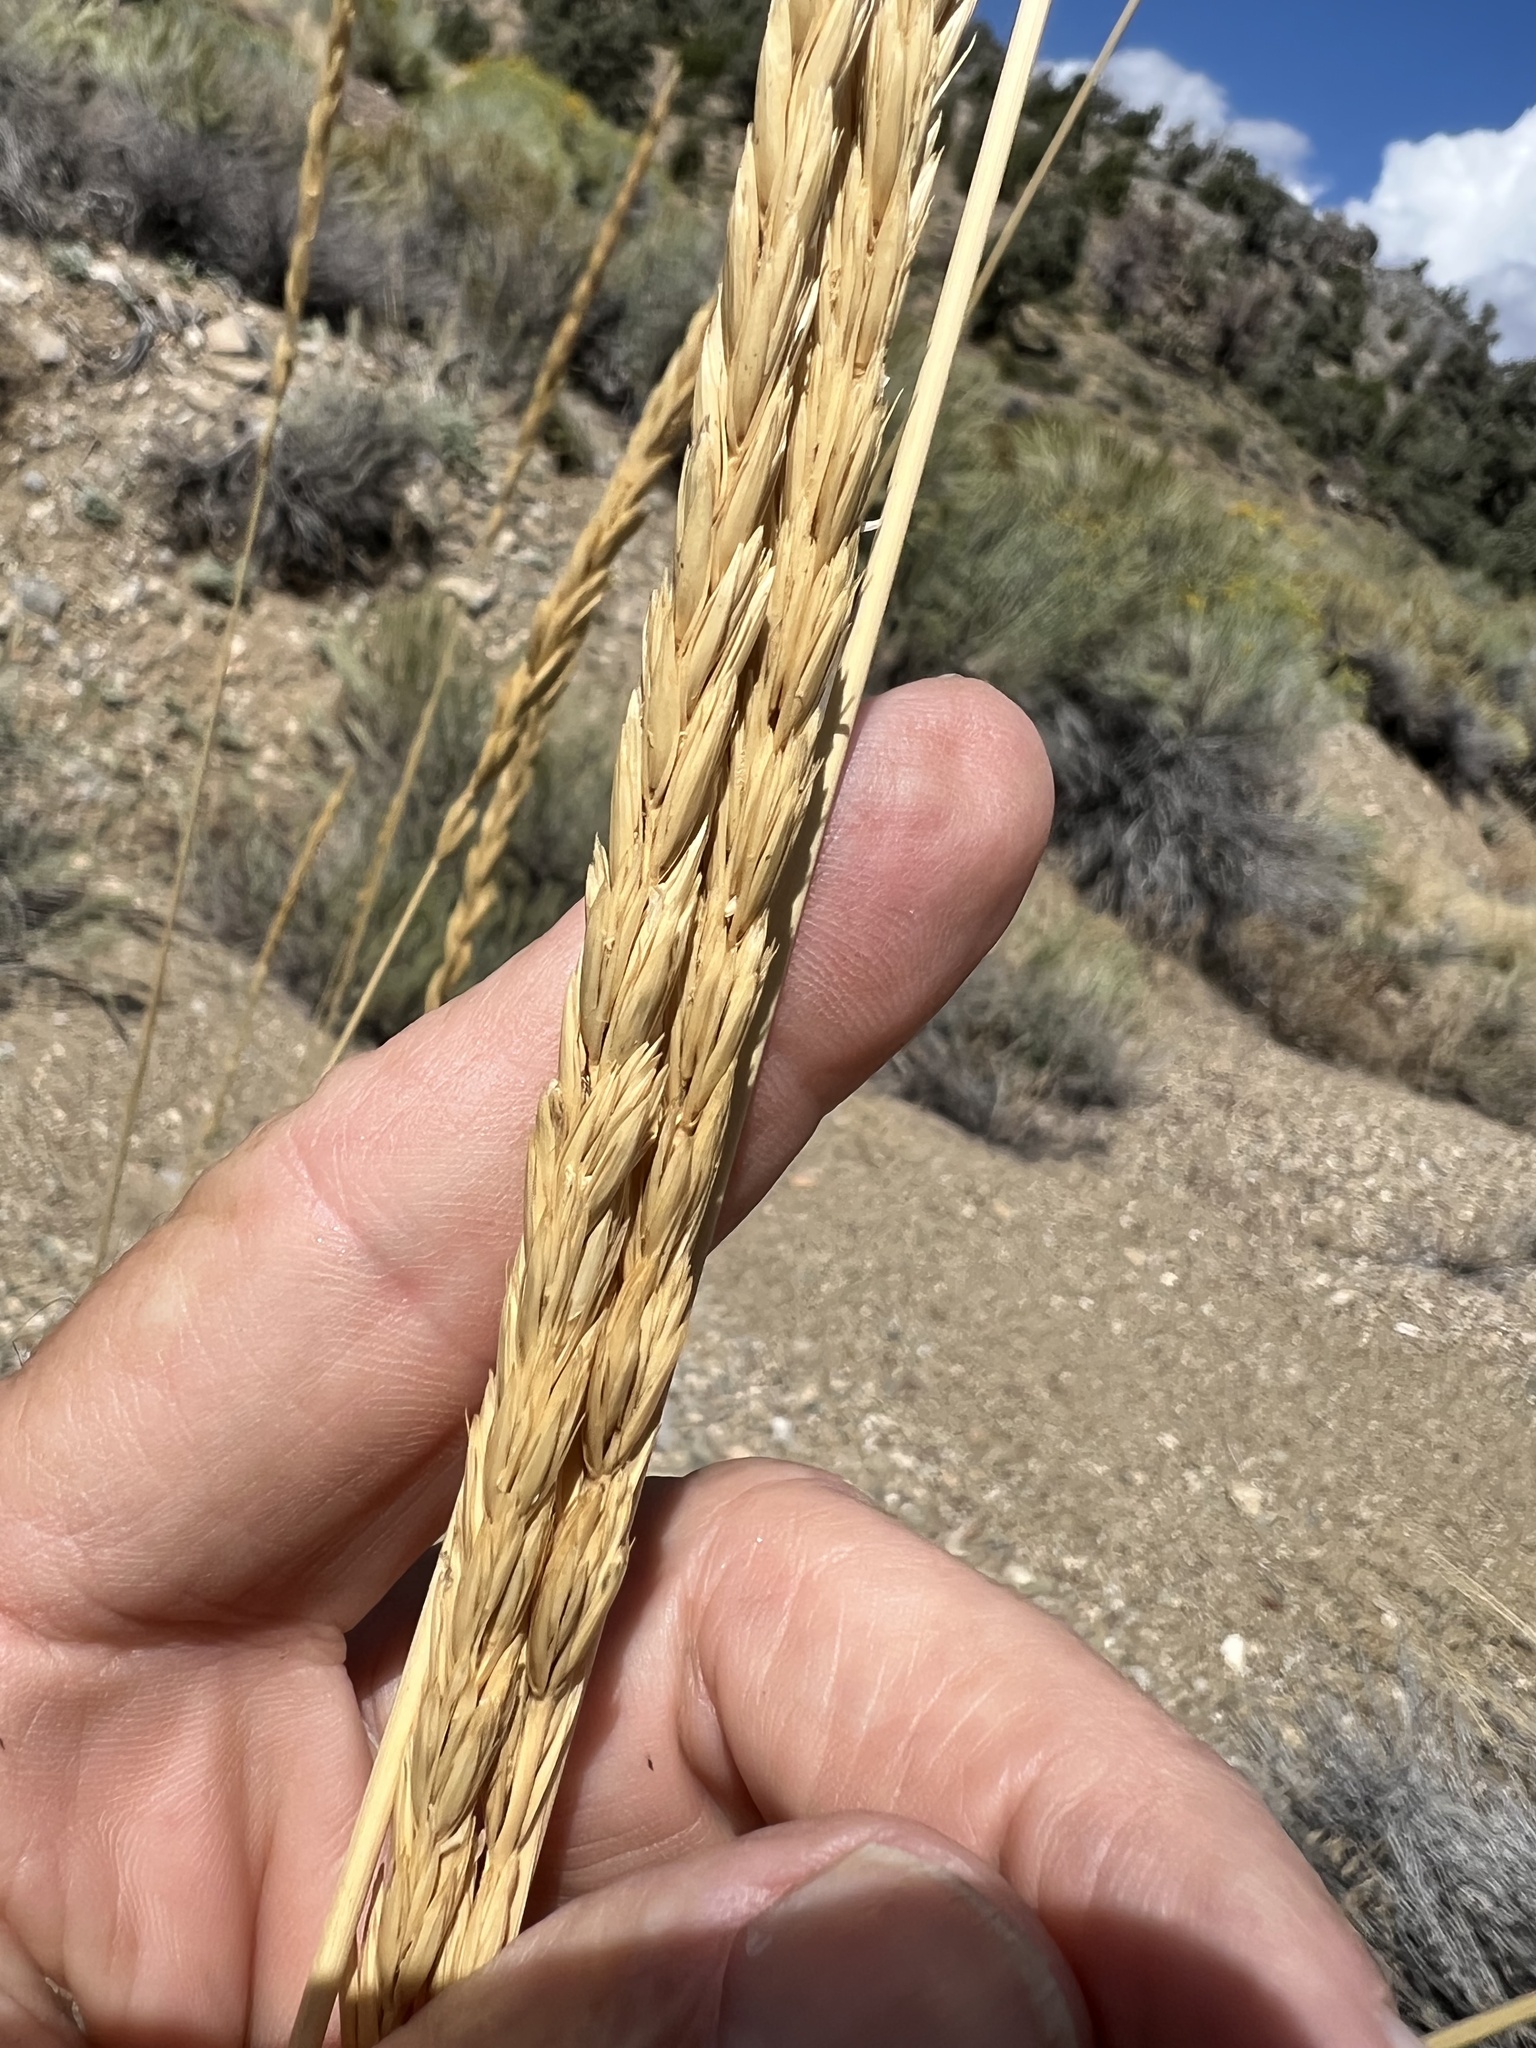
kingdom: Plantae
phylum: Tracheophyta
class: Liliopsida
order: Poales
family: Poaceae
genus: Leymus
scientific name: Leymus cinereus
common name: Basin wild rye
